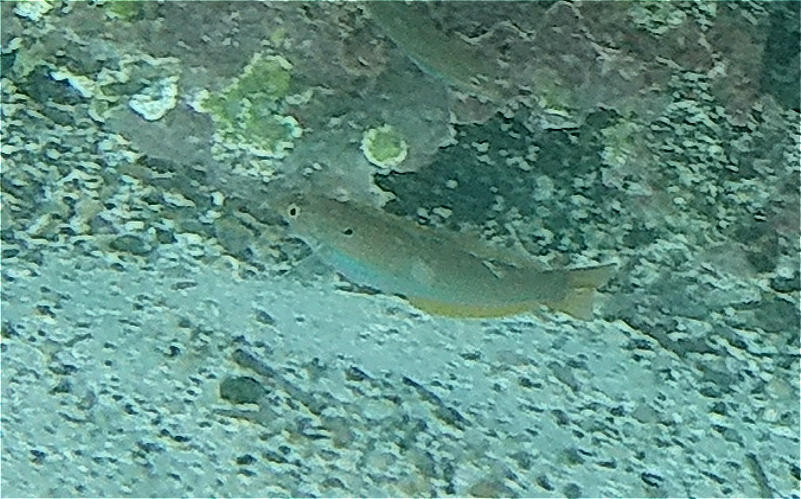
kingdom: Animalia
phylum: Chordata
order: Perciformes
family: Labridae
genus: Halichoeres
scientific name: Halichoeres dispilus
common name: Chameleon wrasse
